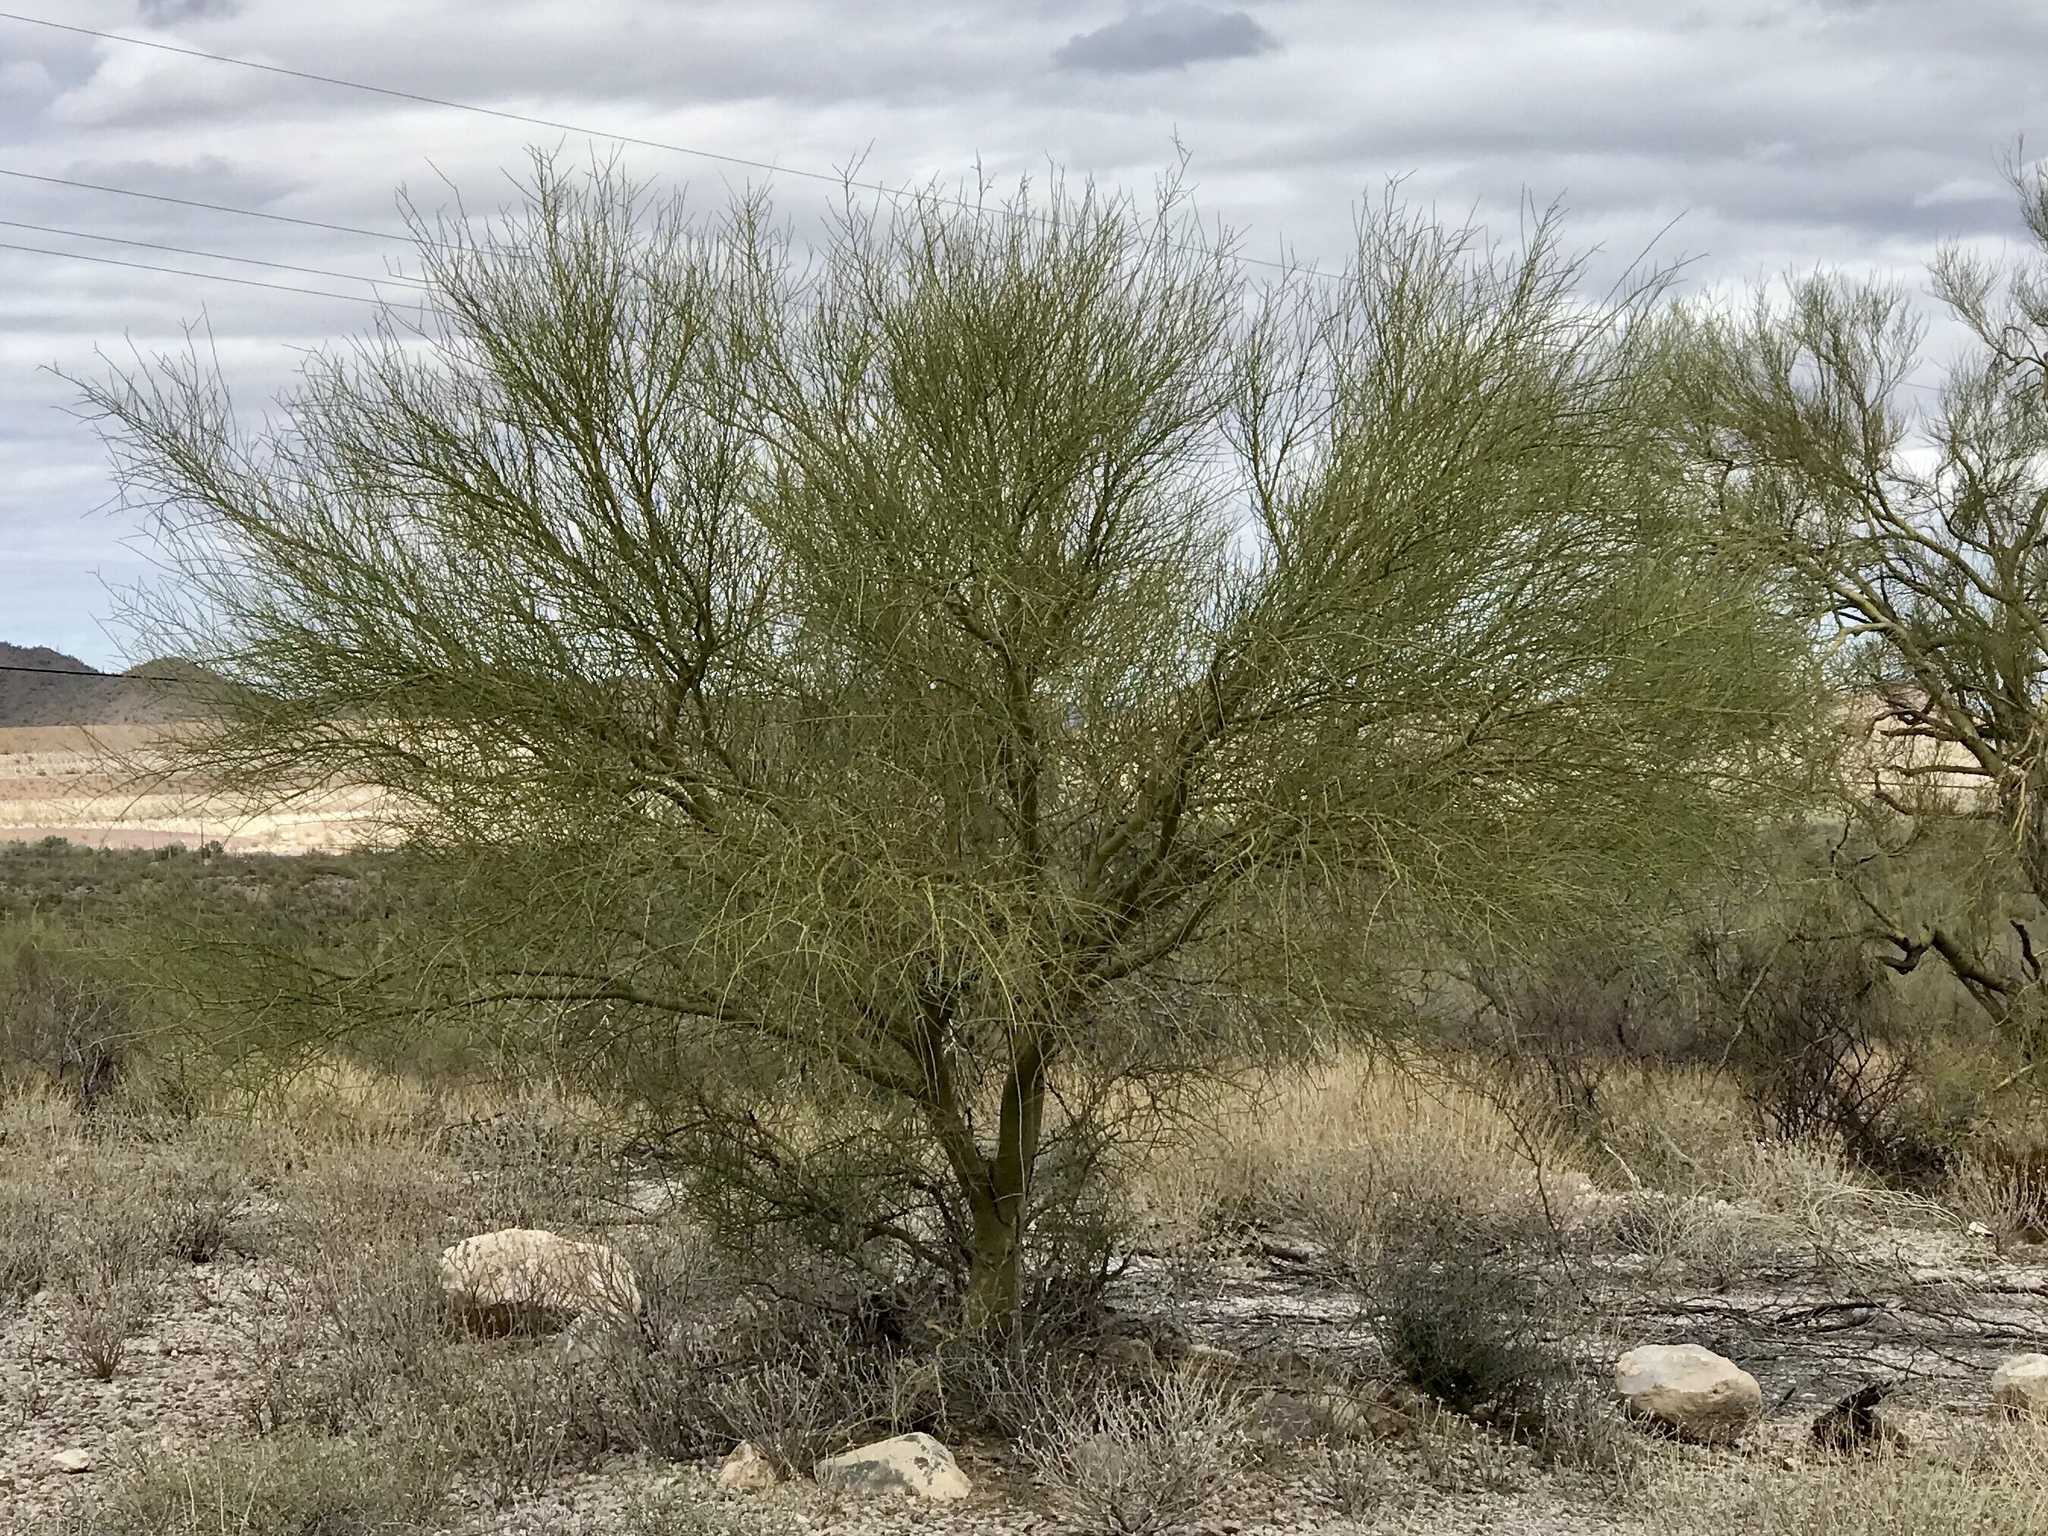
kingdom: Plantae
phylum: Tracheophyta
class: Magnoliopsida
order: Fabales
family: Fabaceae
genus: Parkinsonia
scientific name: Parkinsonia microphylla
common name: Yellow paloverde
